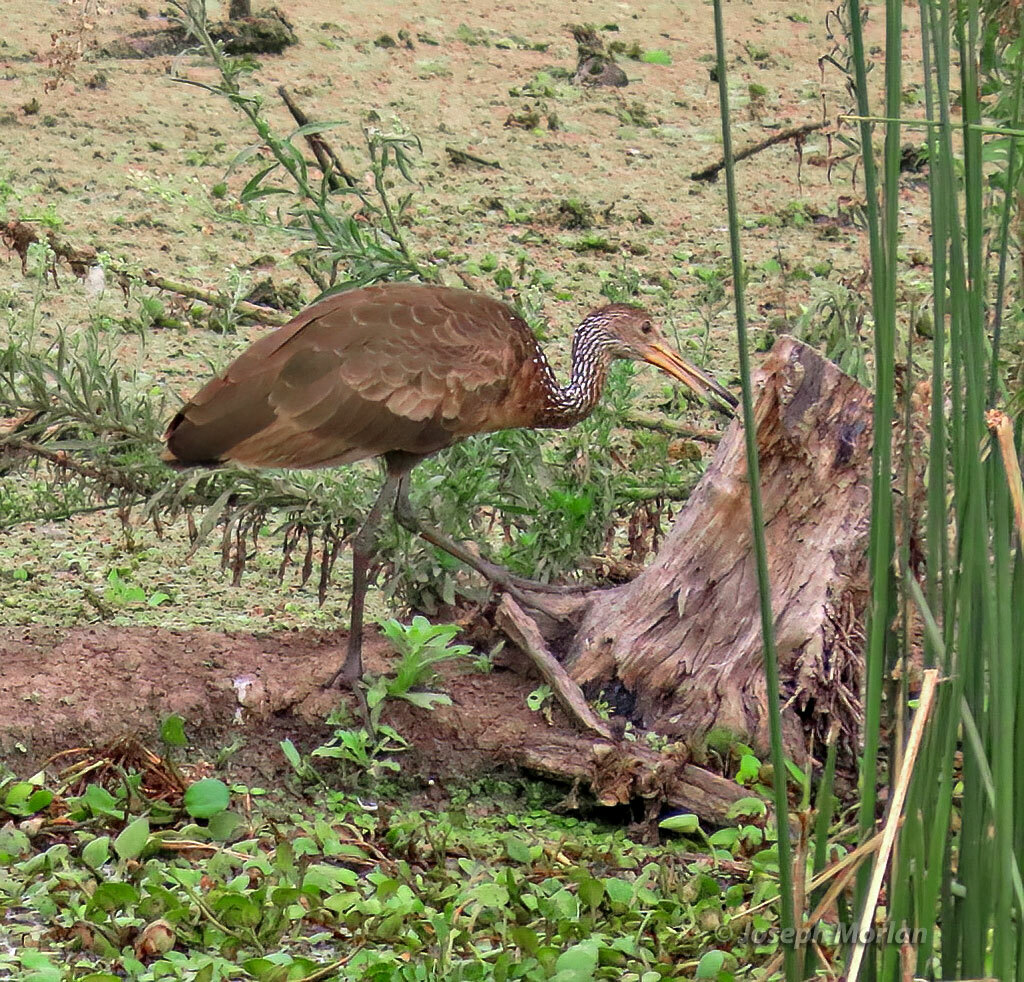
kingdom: Animalia
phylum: Chordata
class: Aves
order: Gruiformes
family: Aramidae
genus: Aramus
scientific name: Aramus guarauna
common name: Limpkin
